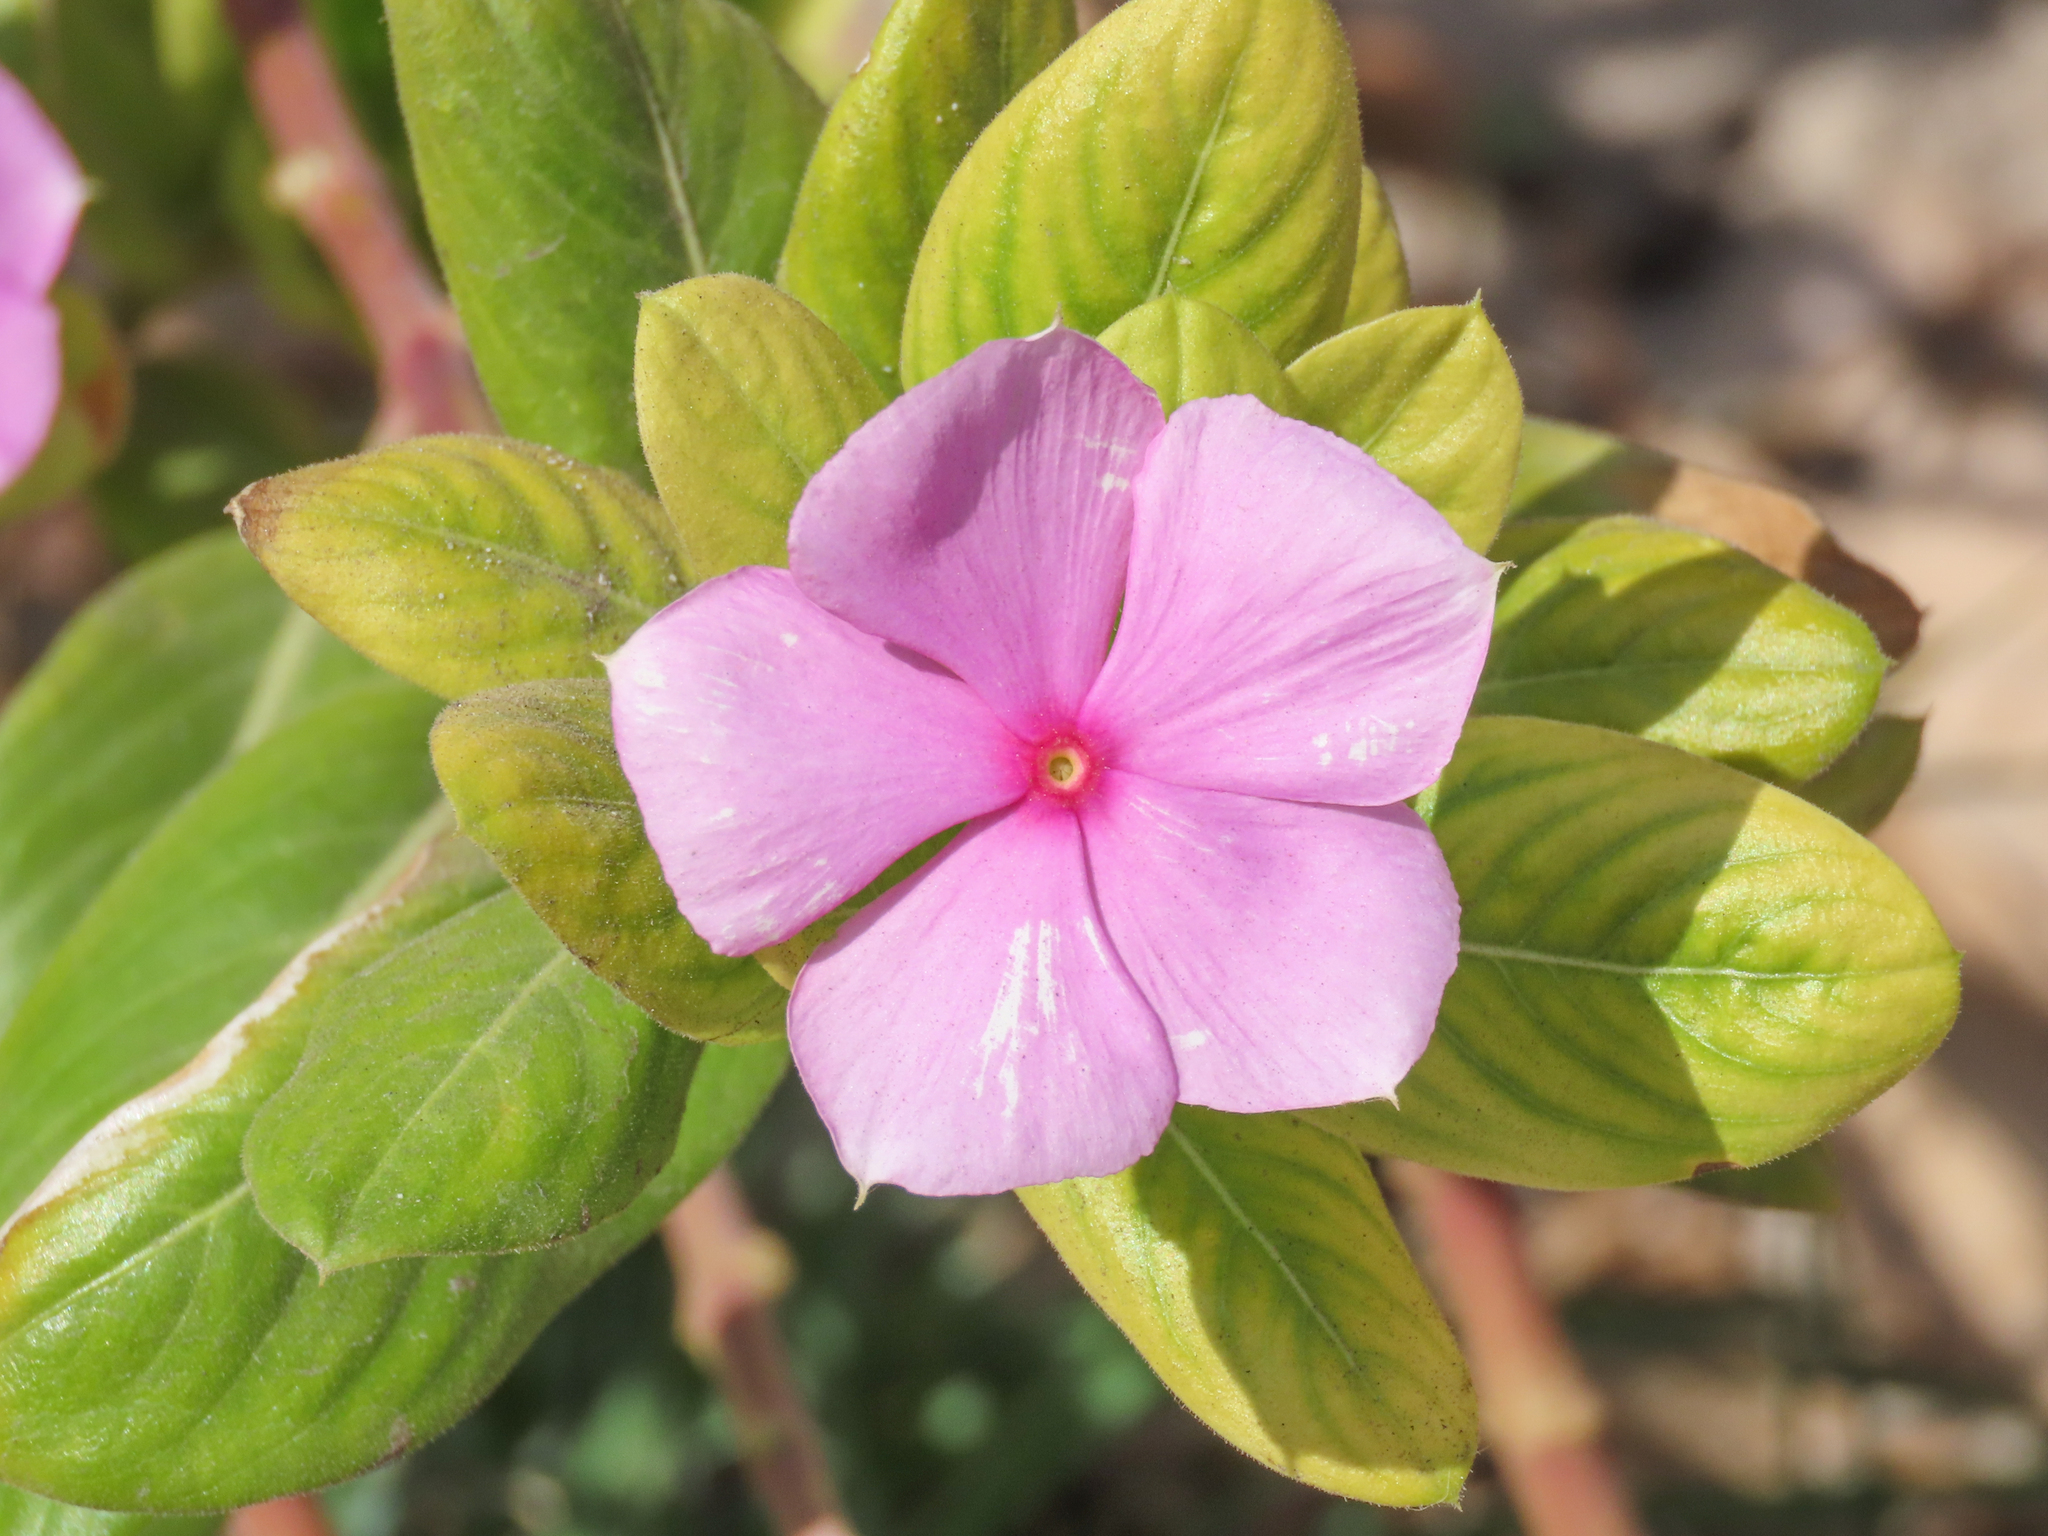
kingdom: Plantae
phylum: Tracheophyta
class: Magnoliopsida
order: Gentianales
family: Apocynaceae
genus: Catharanthus
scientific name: Catharanthus roseus
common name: Madagascar periwinkle
